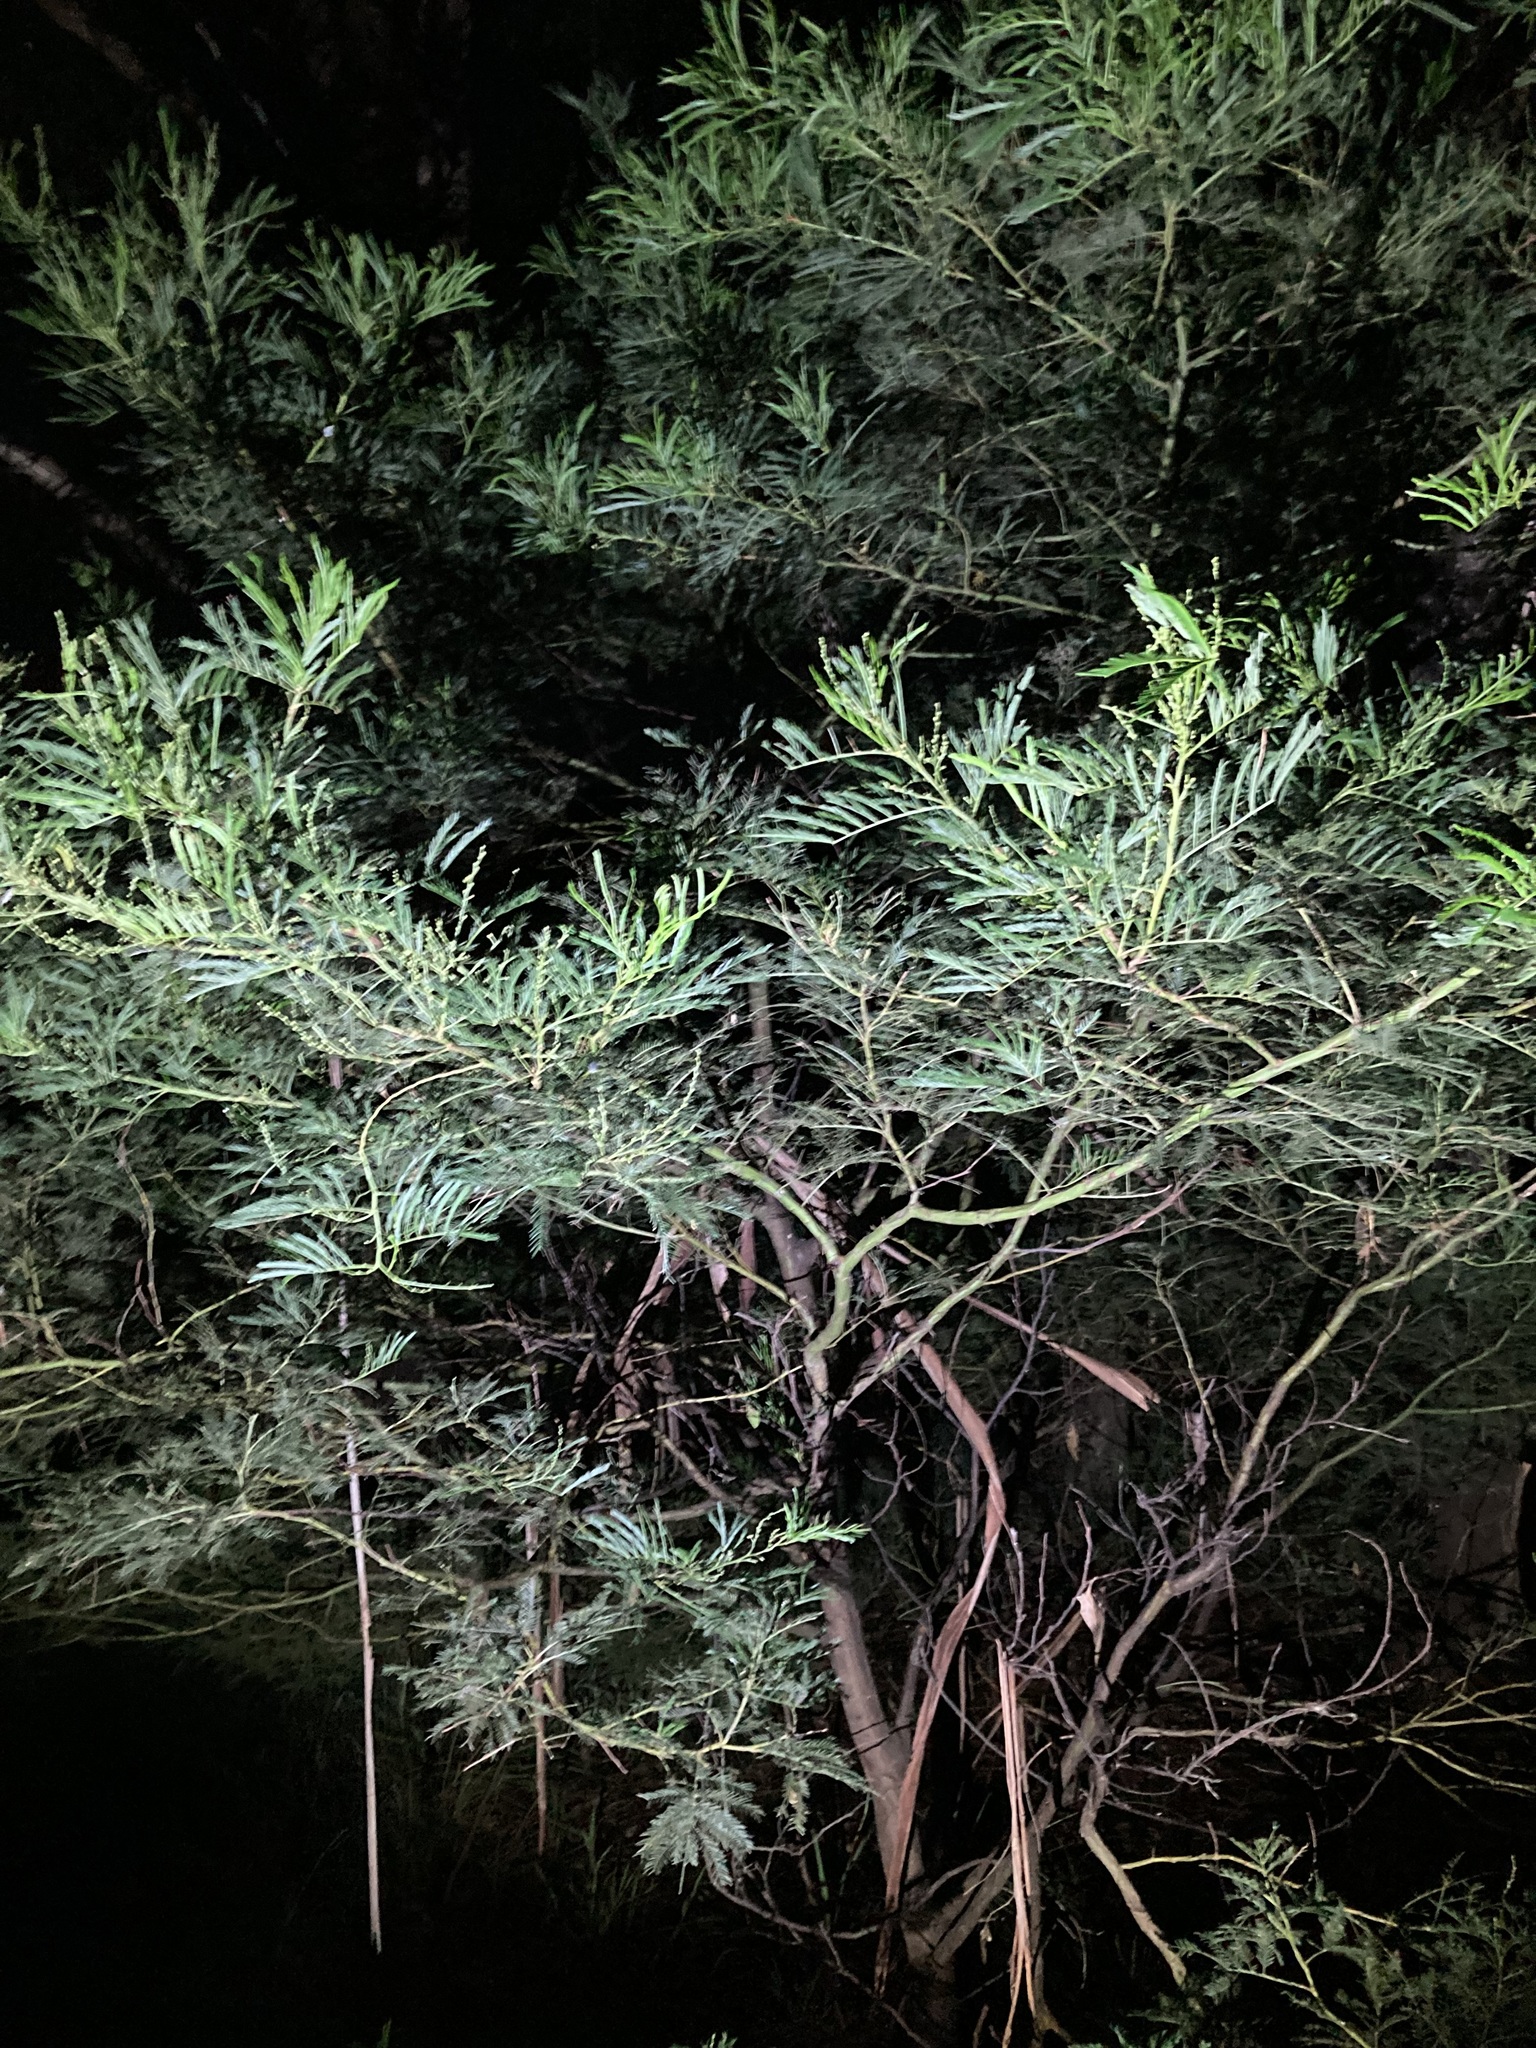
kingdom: Plantae
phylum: Tracheophyta
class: Magnoliopsida
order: Fabales
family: Fabaceae
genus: Acacia
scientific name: Acacia decurrens
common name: Green wattle
